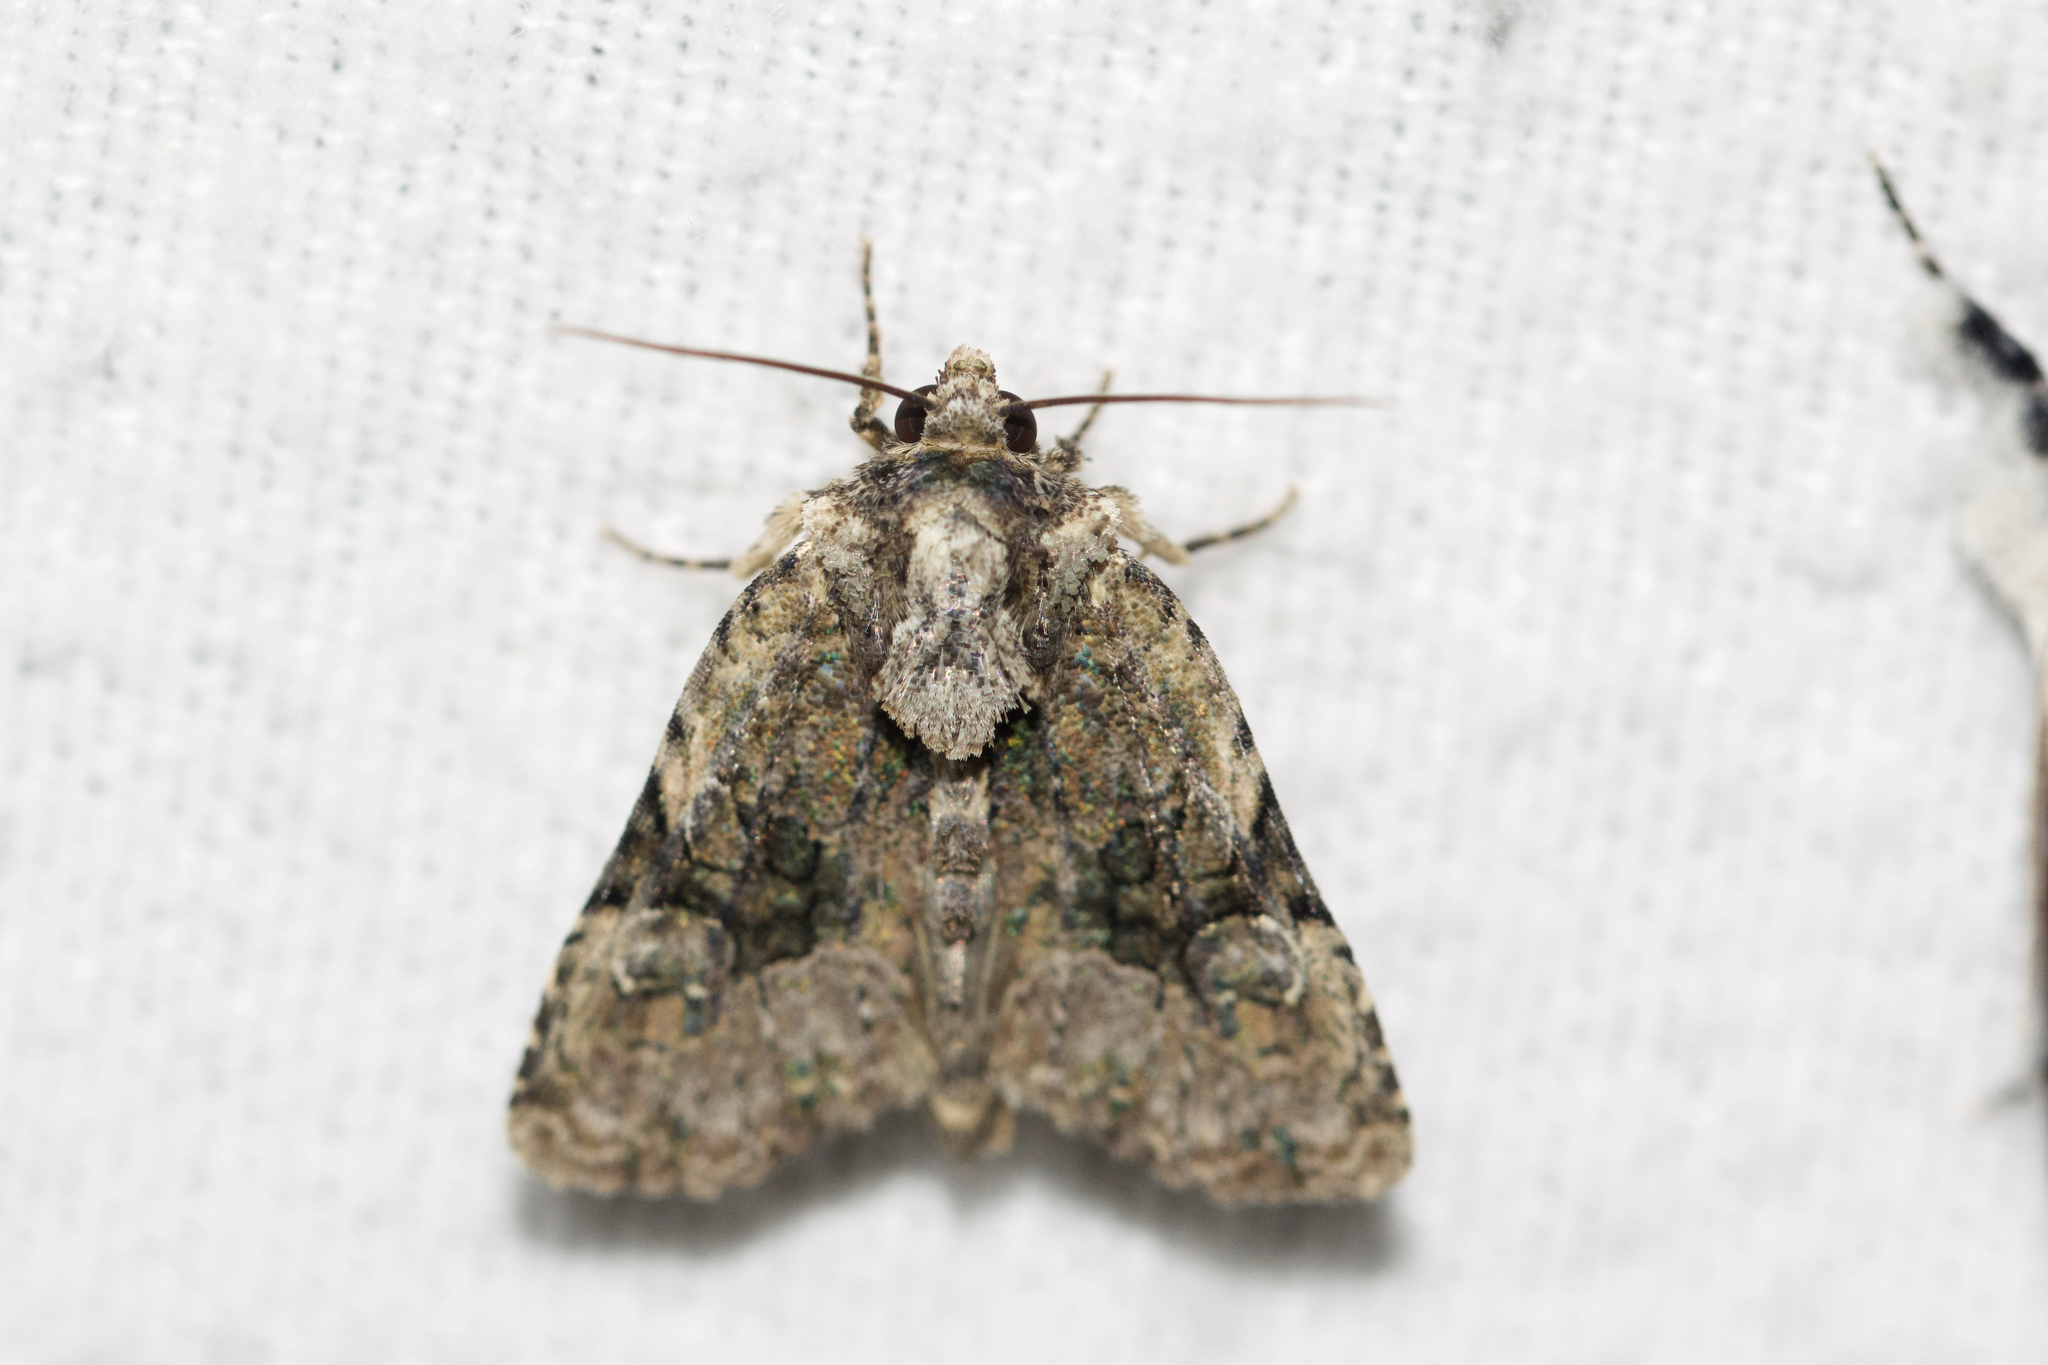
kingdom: Animalia
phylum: Arthropoda
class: Insecta
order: Lepidoptera
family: Noctuidae
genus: Oligia
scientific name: Oligia modica
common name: Black-banded brocade
